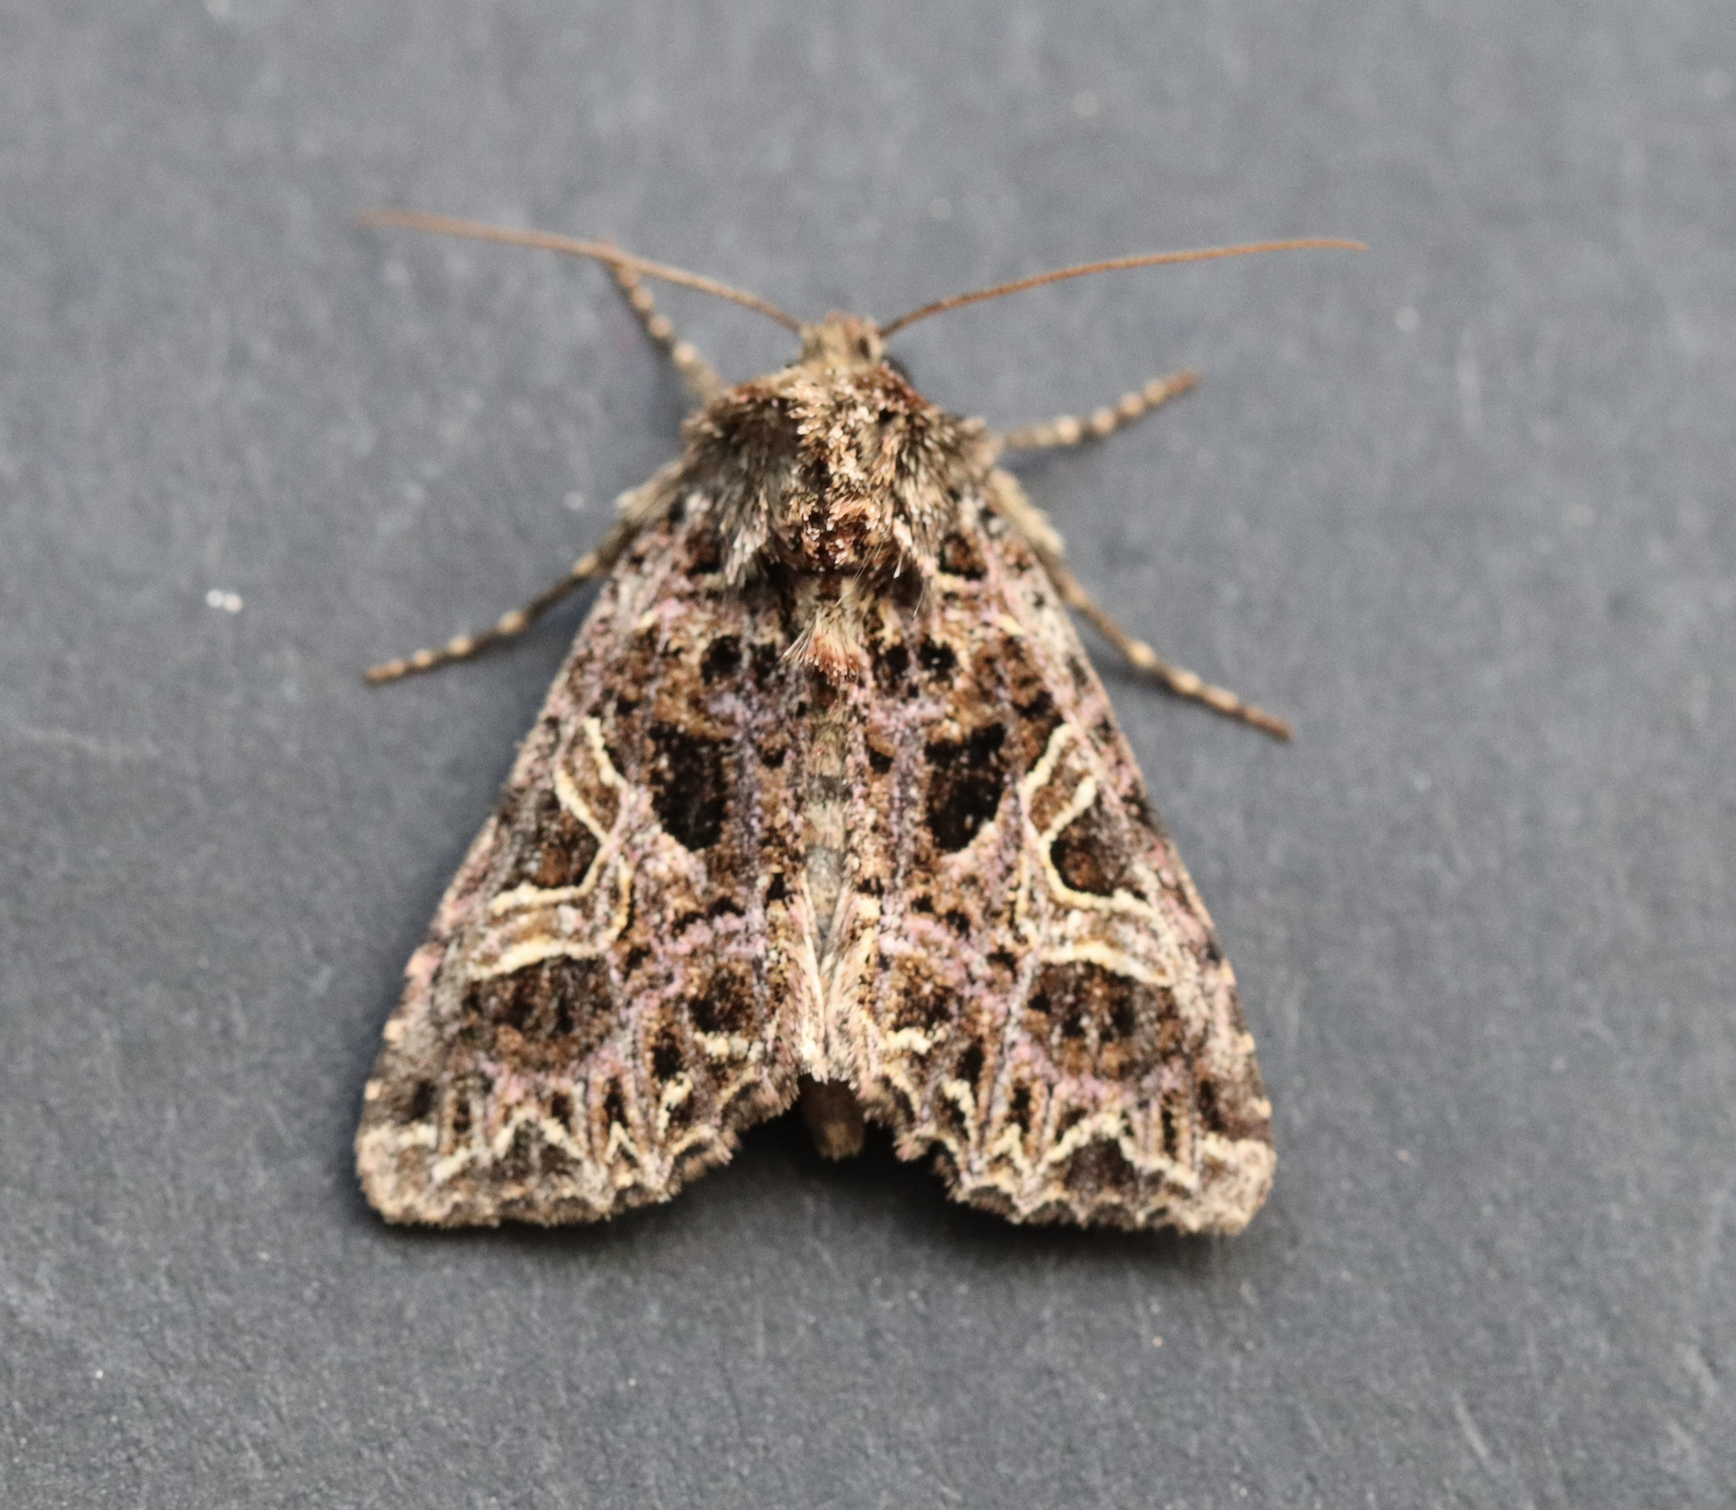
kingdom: Animalia
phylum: Arthropoda
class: Insecta
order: Lepidoptera
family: Noctuidae
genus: Sideridis
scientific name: Sideridis rivularis
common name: Campion
